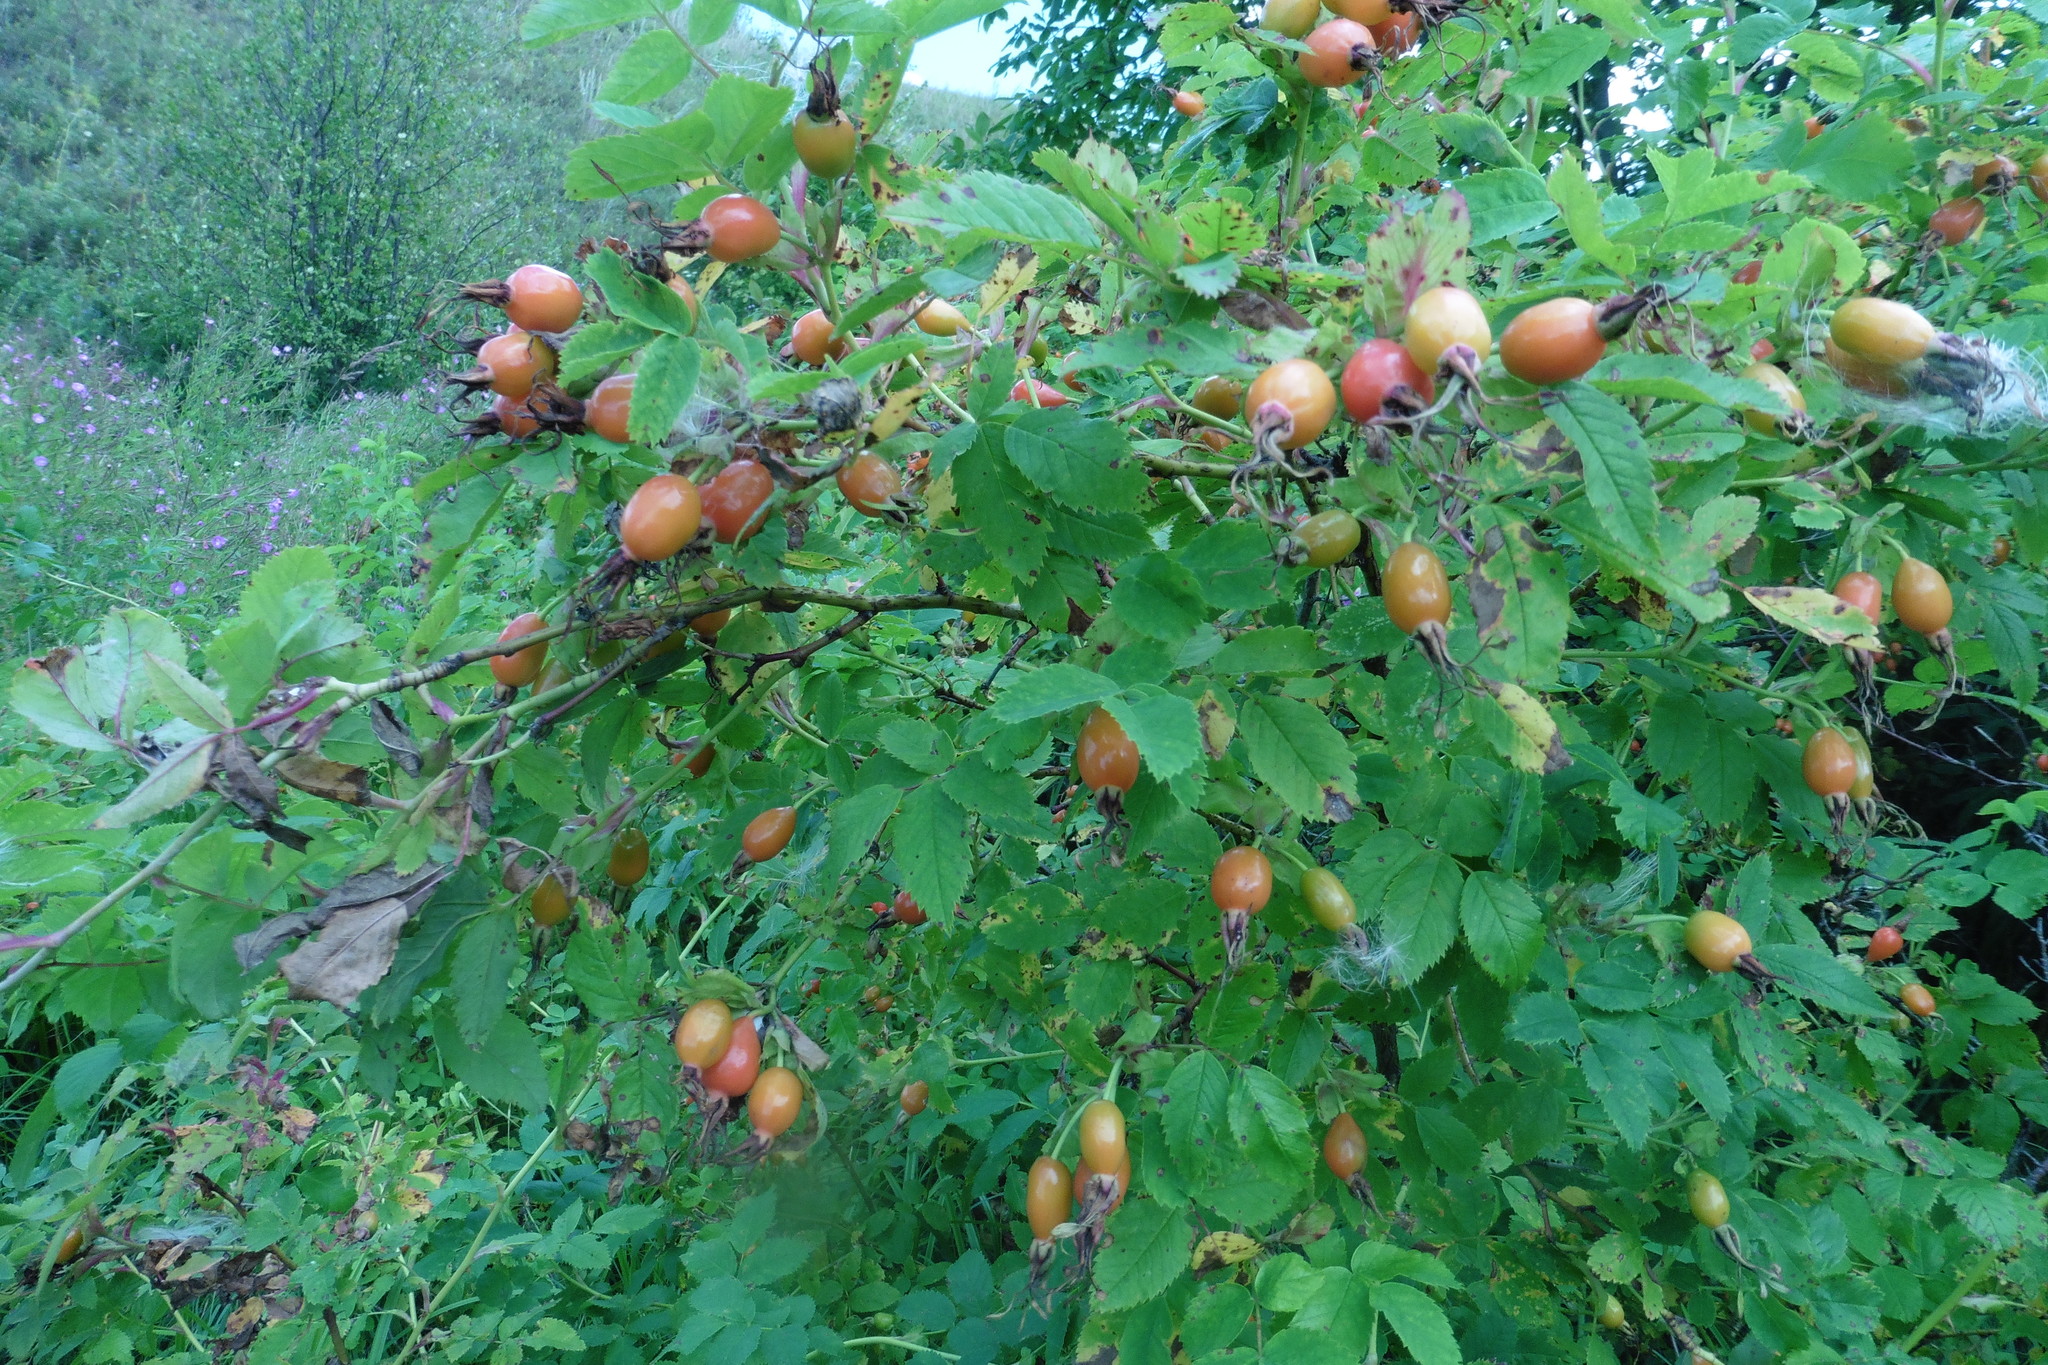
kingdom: Plantae
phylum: Tracheophyta
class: Magnoliopsida
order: Rosales
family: Rosaceae
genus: Rosa
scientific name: Rosa
